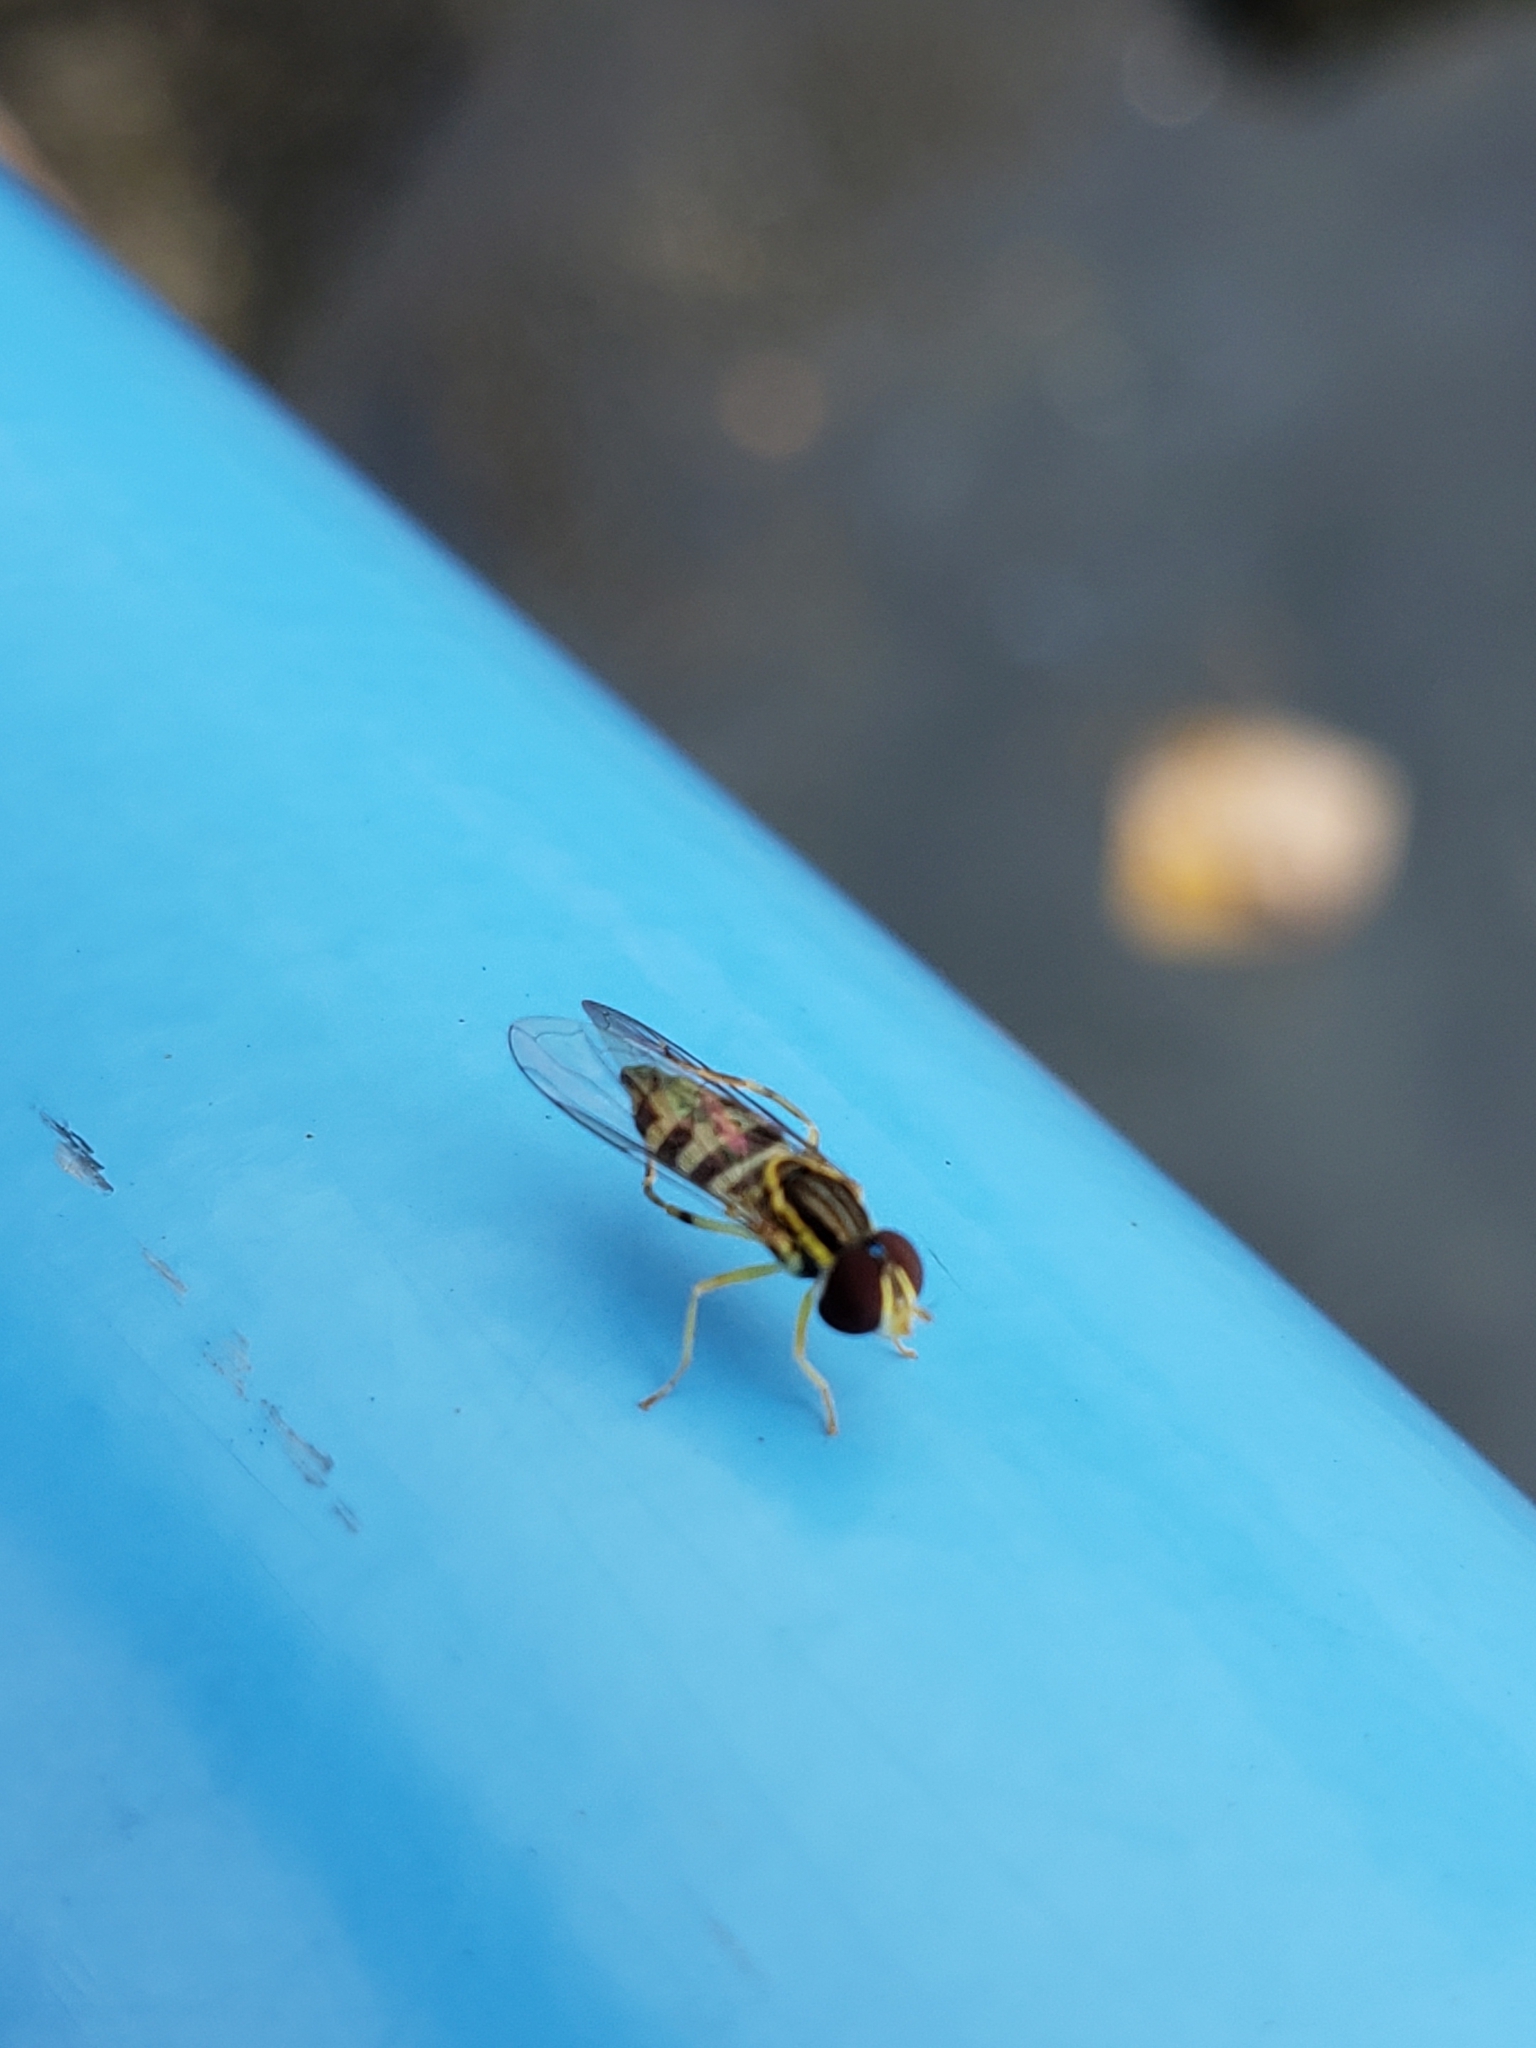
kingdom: Animalia
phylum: Arthropoda
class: Insecta
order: Diptera
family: Syrphidae
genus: Toxomerus
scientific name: Toxomerus geminatus
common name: Eastern calligrapher
